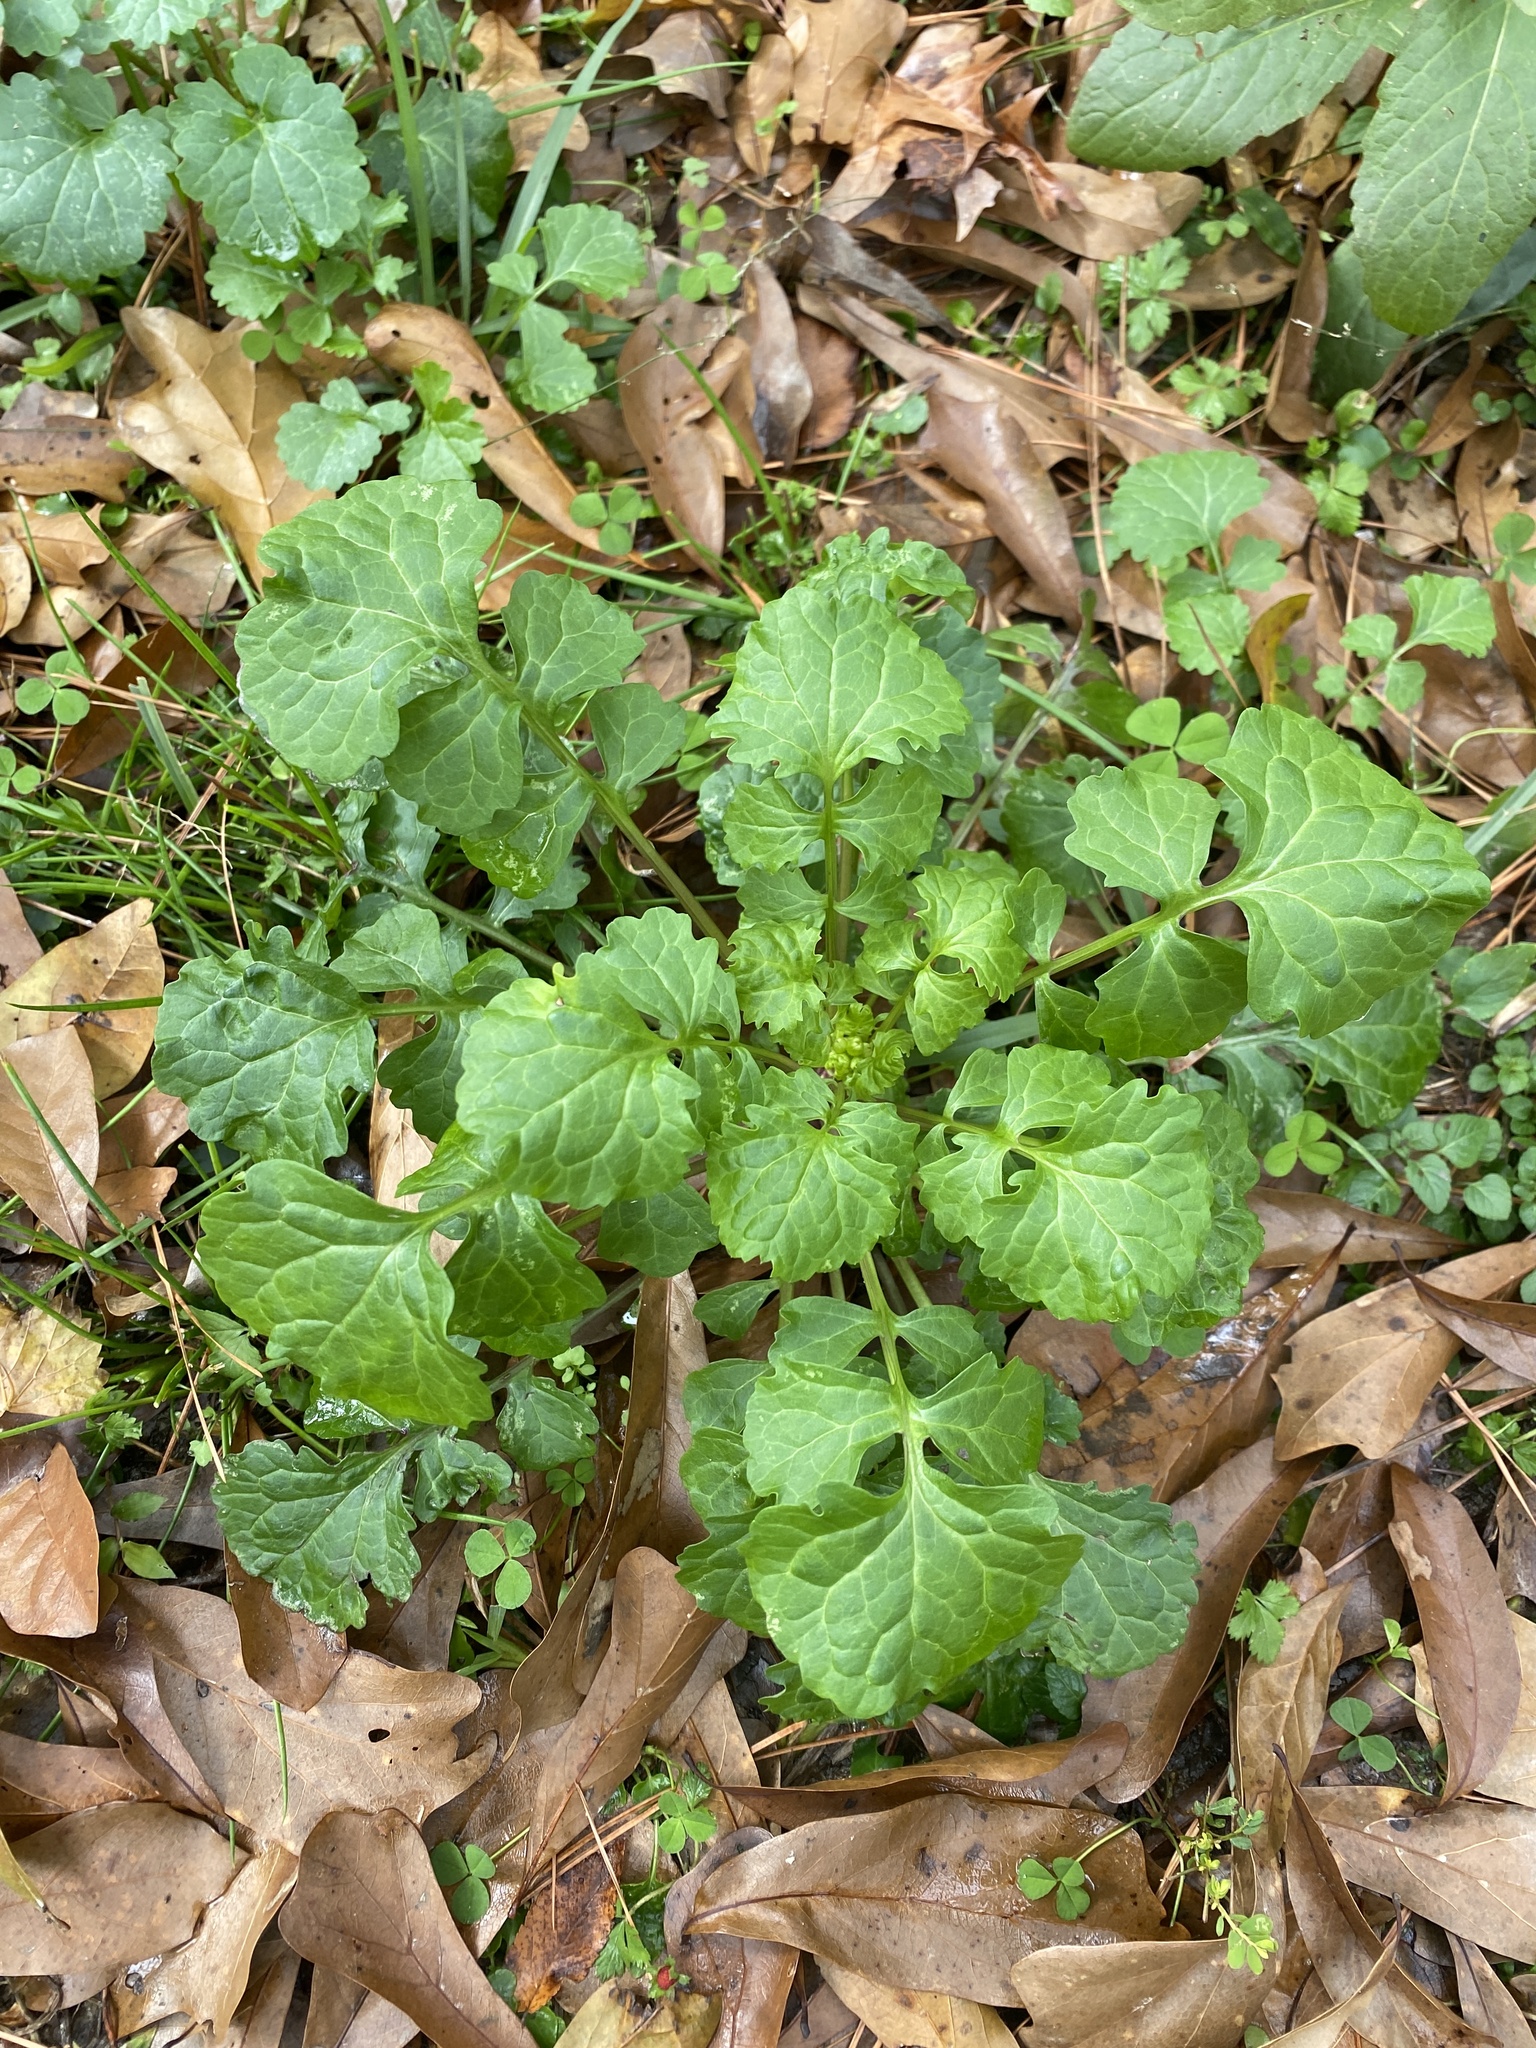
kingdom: Plantae
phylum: Tracheophyta
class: Magnoliopsida
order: Asterales
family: Asteraceae
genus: Packera
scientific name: Packera glabella
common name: Butterweed
